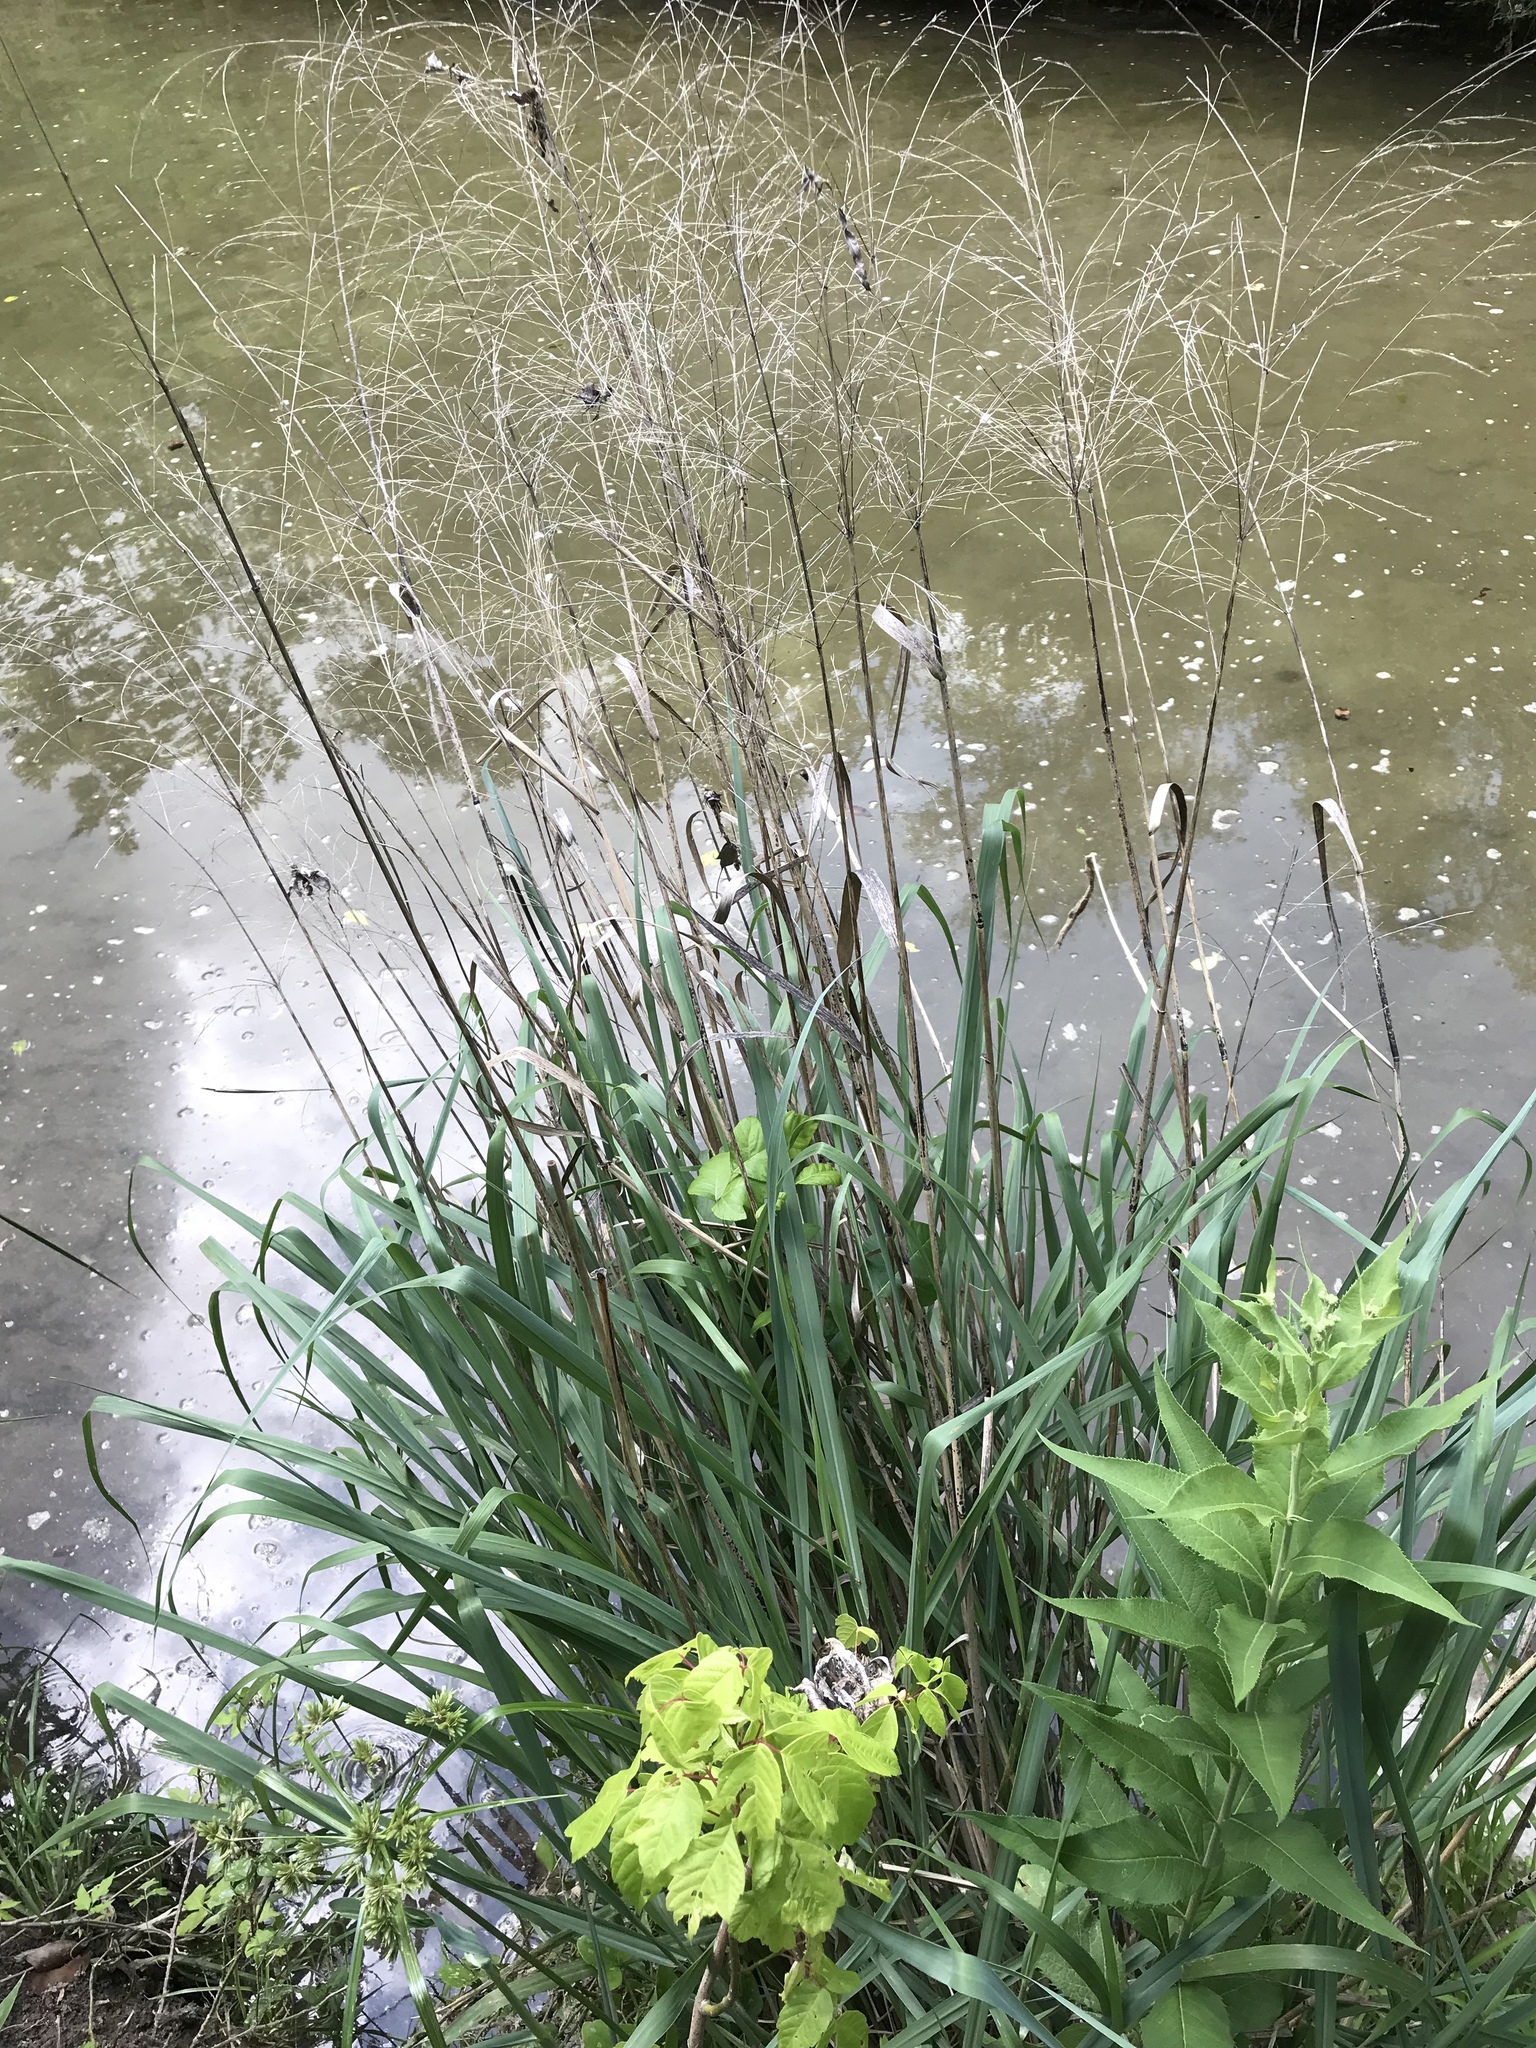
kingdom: Plantae
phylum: Tracheophyta
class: Liliopsida
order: Poales
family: Poaceae
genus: Panicum
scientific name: Panicum virgatum
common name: Switchgrass
